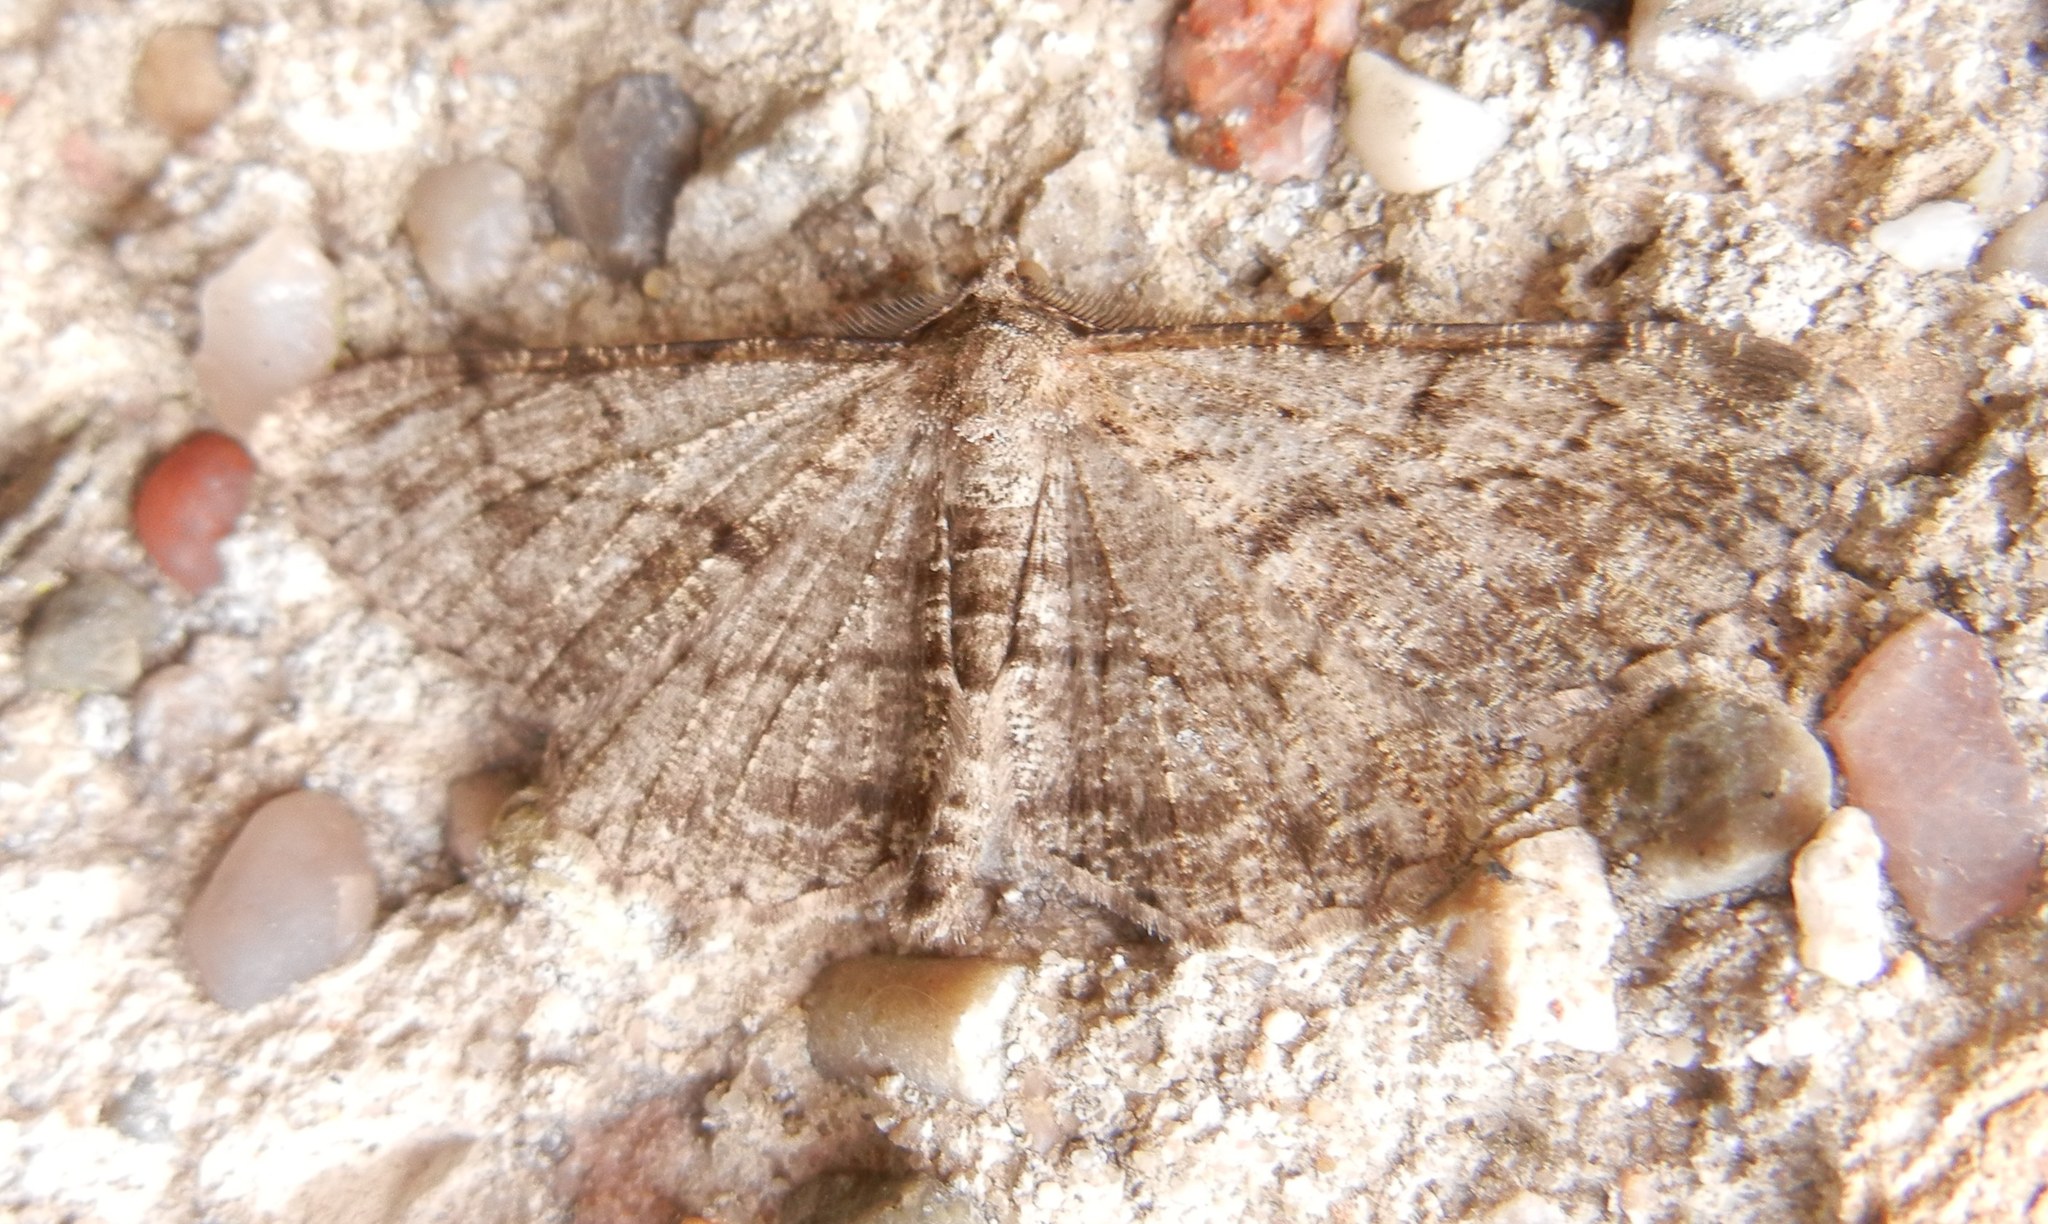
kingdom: Animalia
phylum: Arthropoda
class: Insecta
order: Lepidoptera
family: Geometridae
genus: Peribatodes
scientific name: Peribatodes rhomboidaria
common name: Willow beauty
